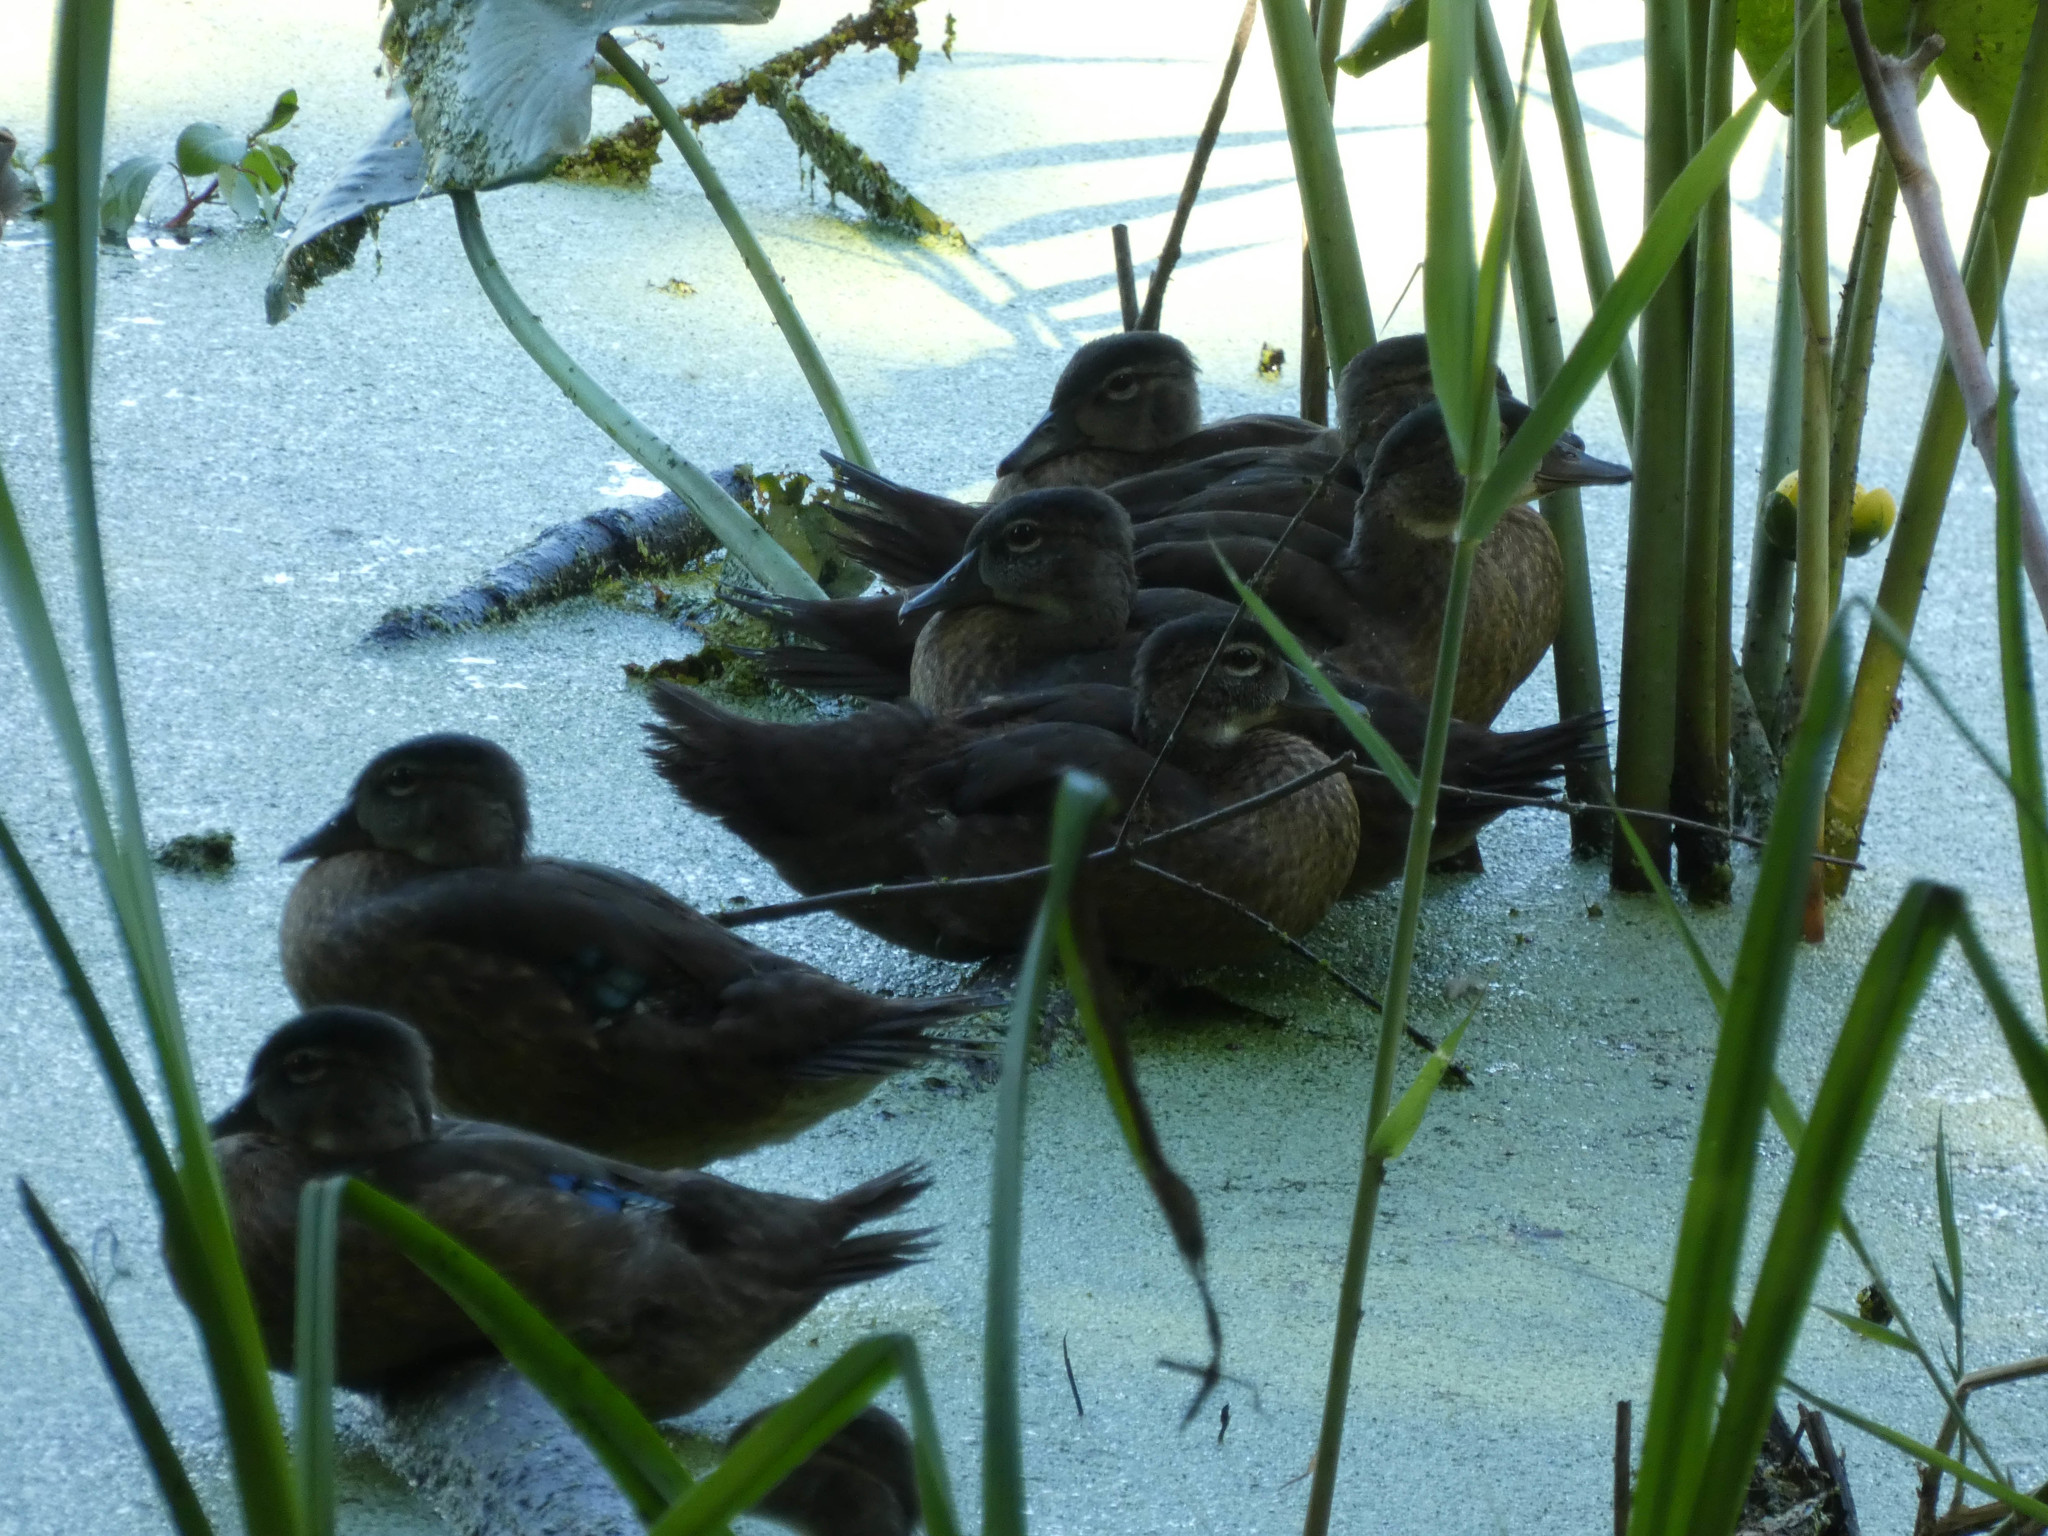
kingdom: Animalia
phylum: Chordata
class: Aves
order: Anseriformes
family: Anatidae
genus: Aix
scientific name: Aix sponsa
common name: Wood duck
